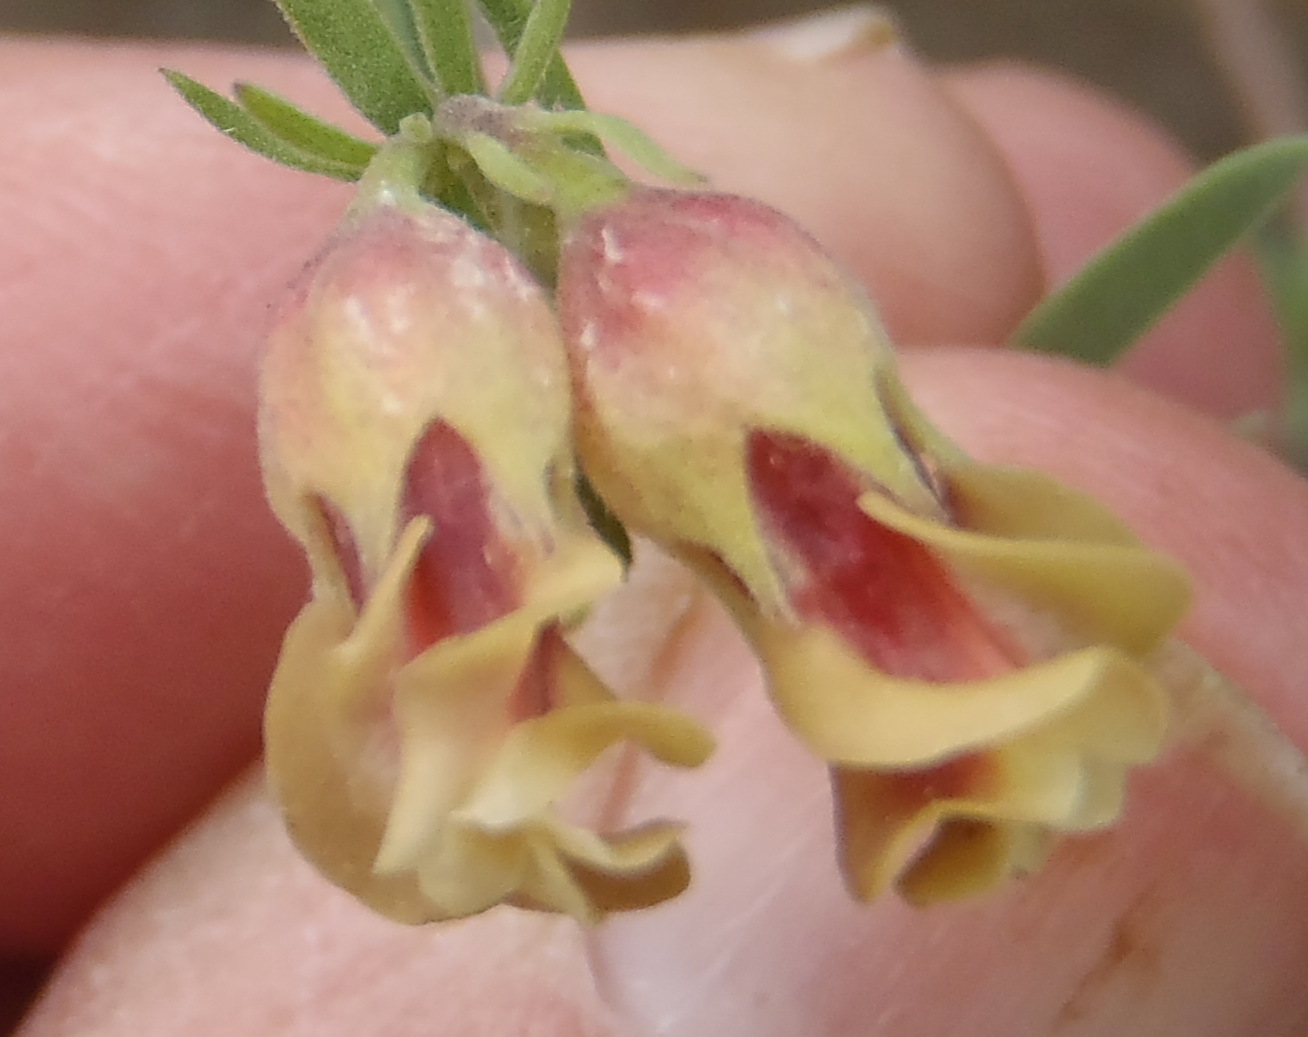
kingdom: Plantae
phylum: Tracheophyta
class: Magnoliopsida
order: Malvales
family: Malvaceae
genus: Hermannia
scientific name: Hermannia gracilis
